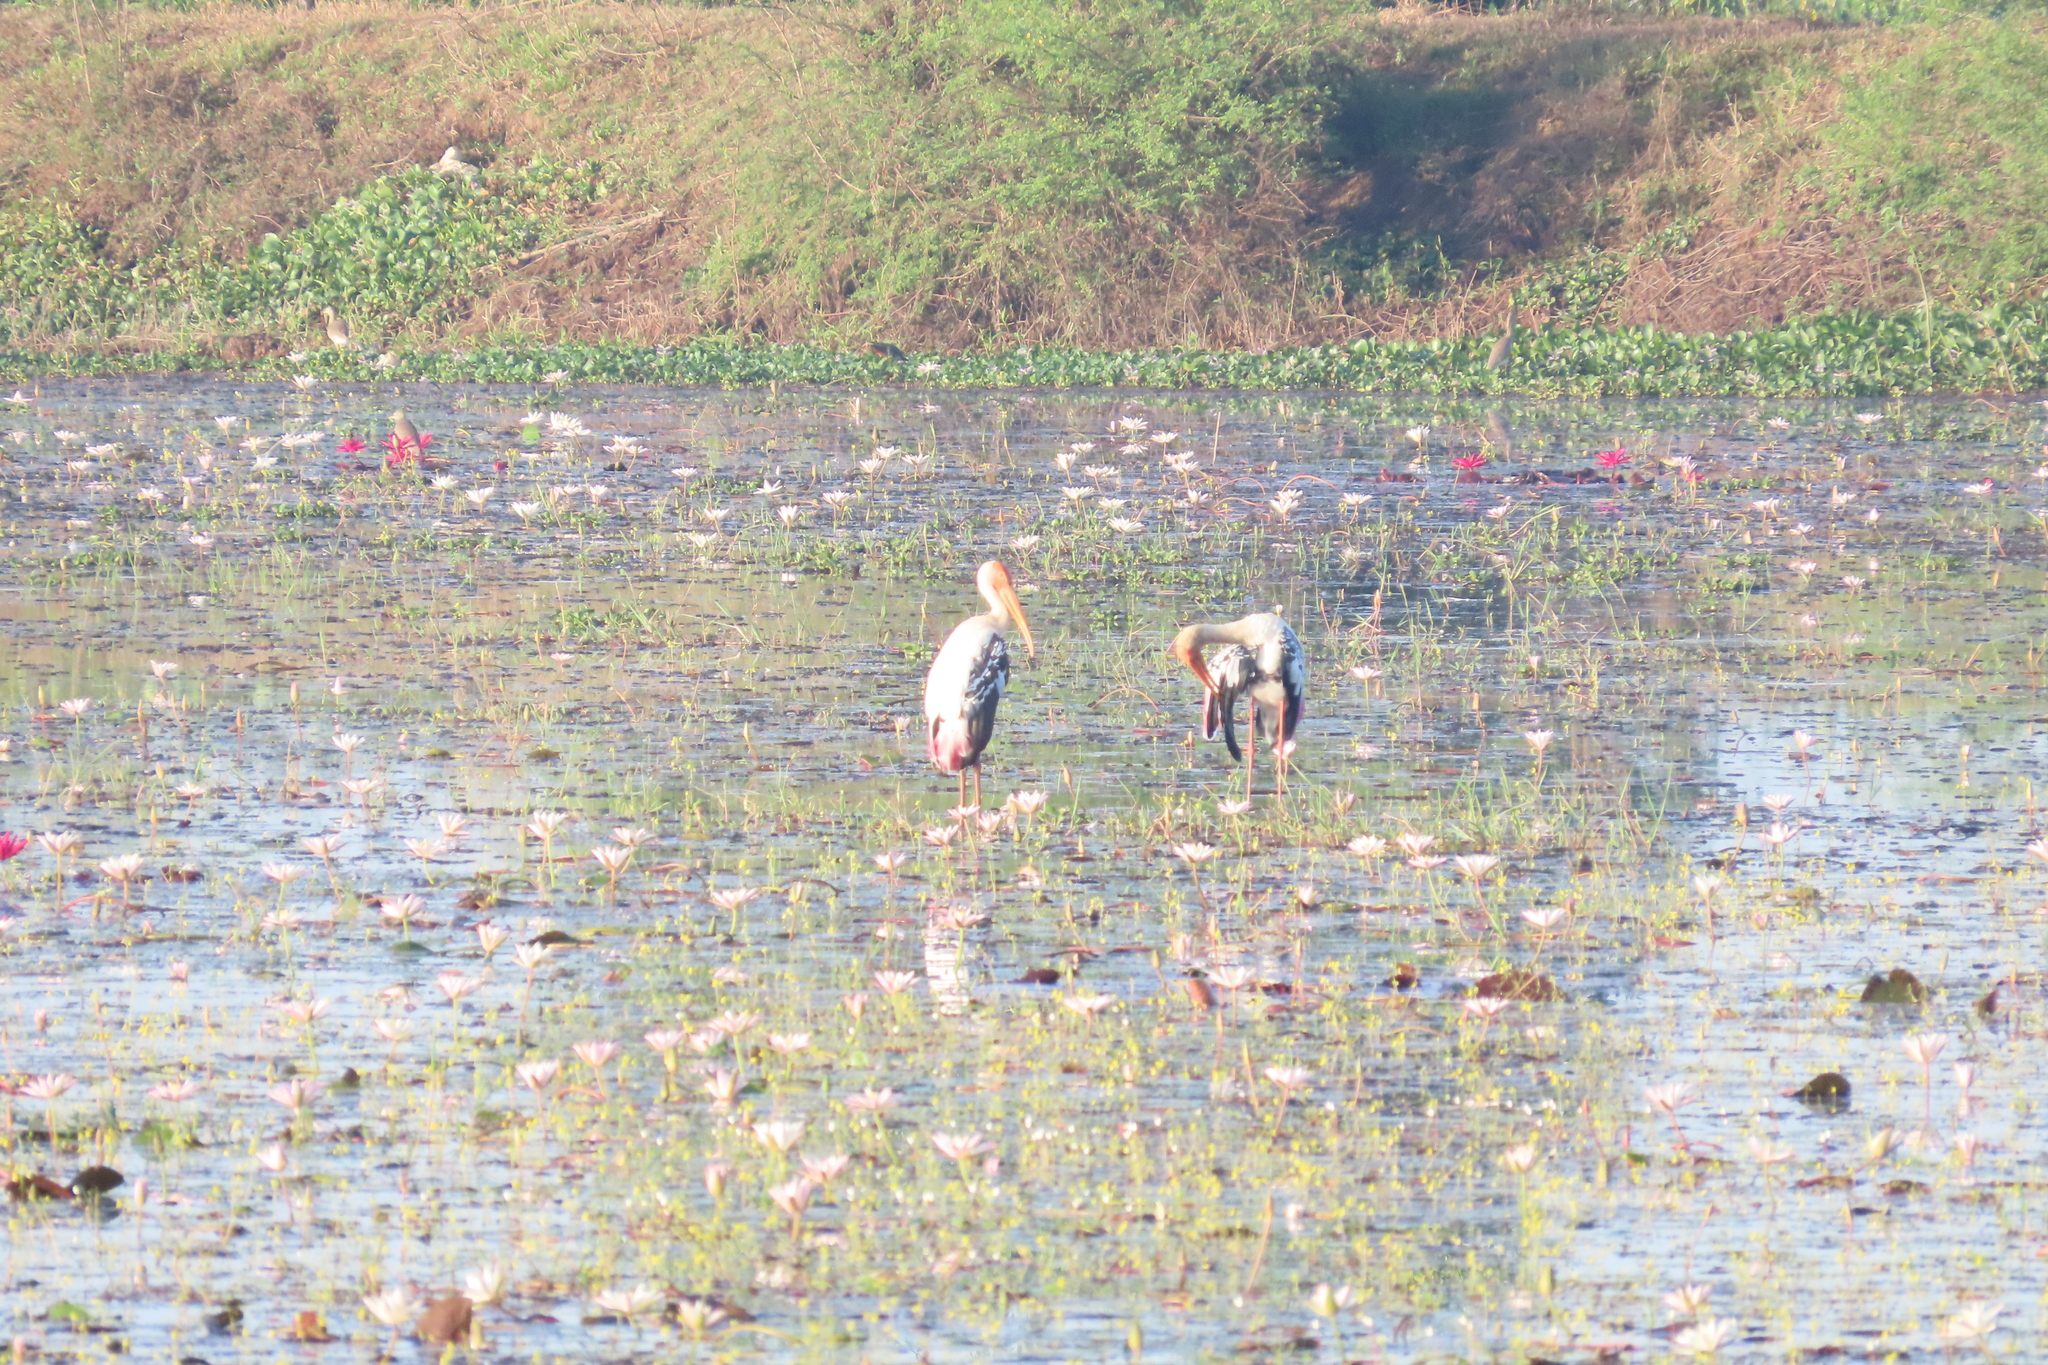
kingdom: Animalia
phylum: Chordata
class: Aves
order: Ciconiiformes
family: Ciconiidae
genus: Mycteria
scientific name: Mycteria leucocephala
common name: Painted stork
